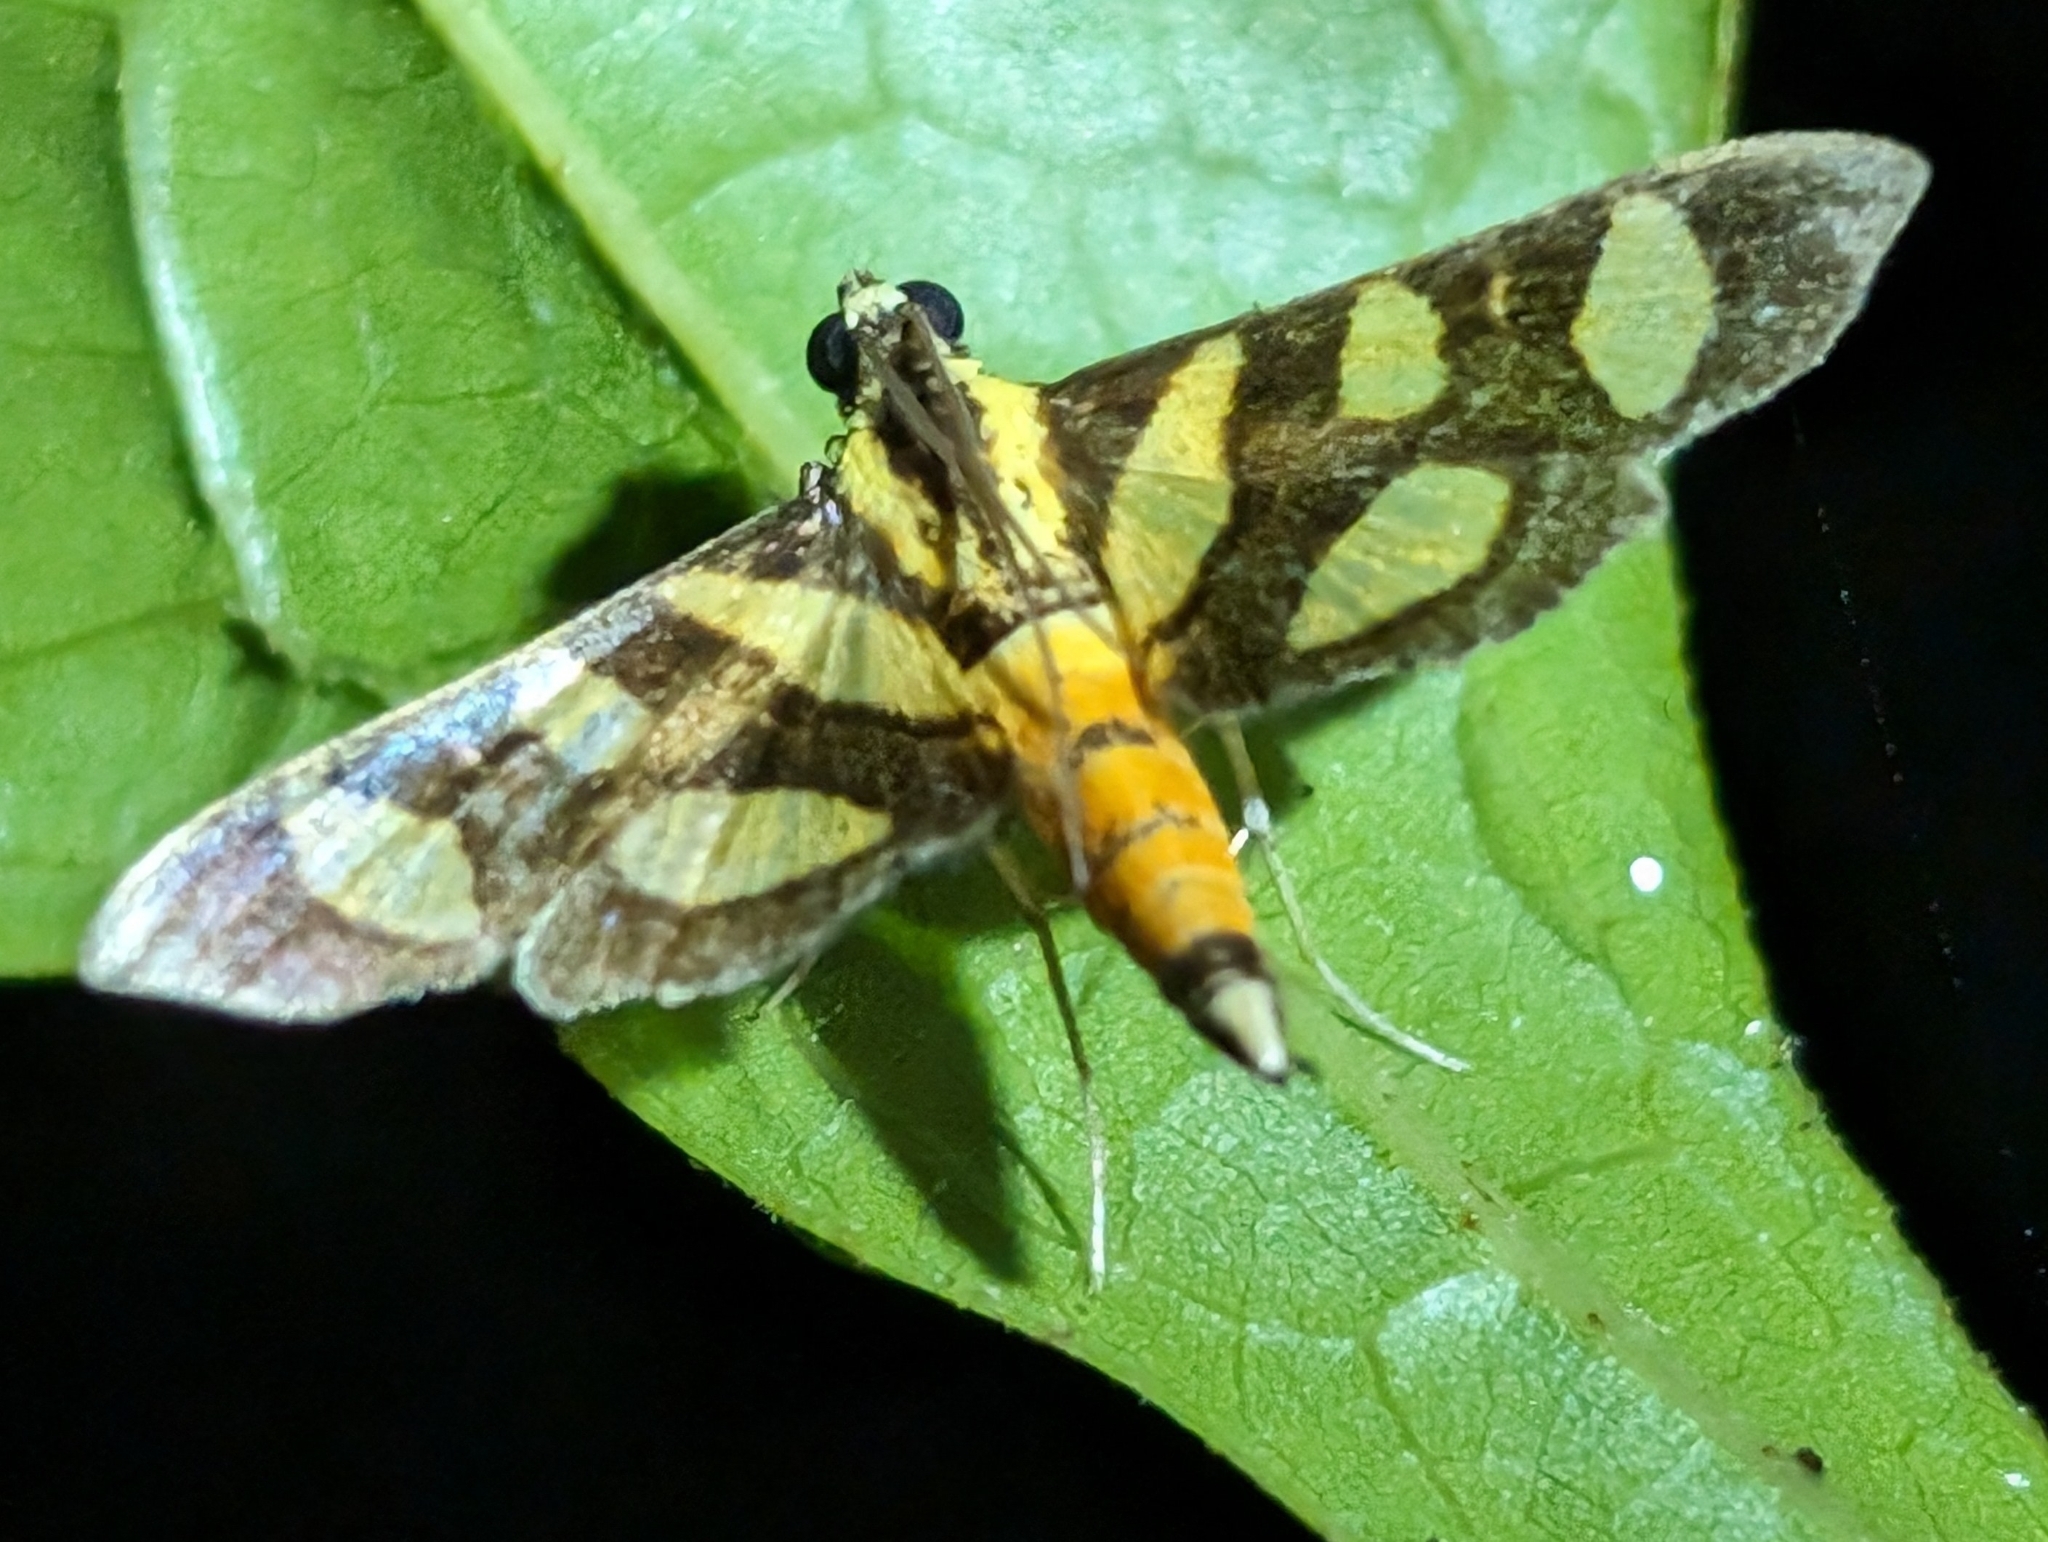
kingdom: Animalia
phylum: Arthropoda
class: Insecta
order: Lepidoptera
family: Crambidae
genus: Syngamia
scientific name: Syngamia florella
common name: Orange-spotted flower moth
